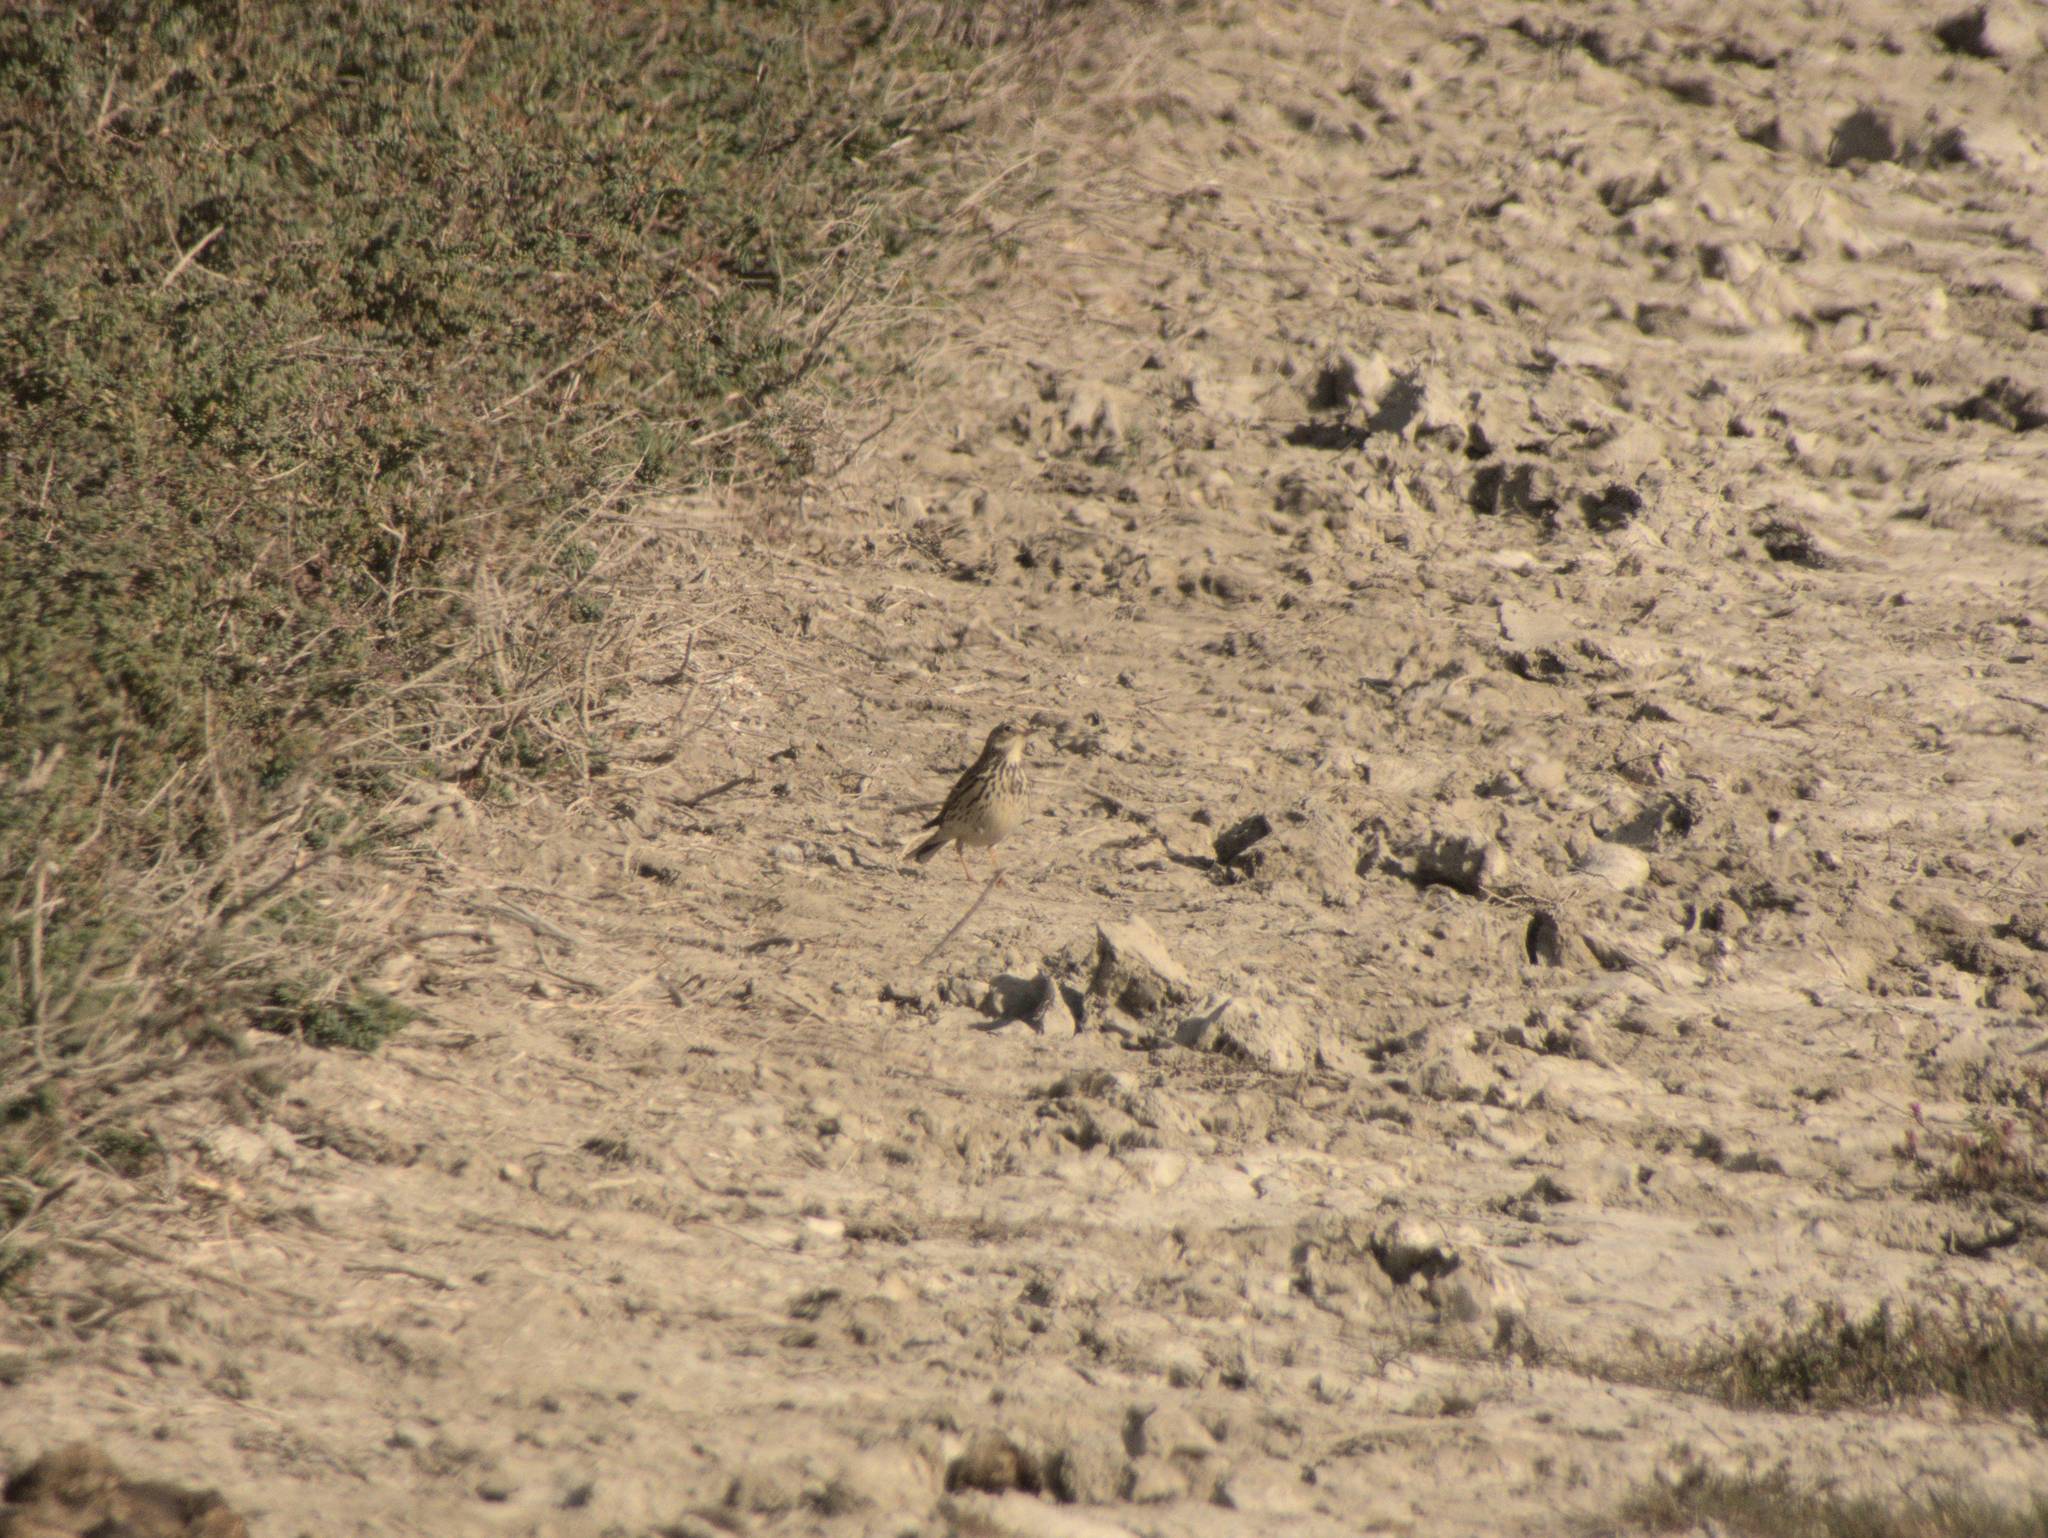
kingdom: Animalia
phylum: Chordata
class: Aves
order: Passeriformes
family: Motacillidae
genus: Anthus
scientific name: Anthus pratensis
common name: Meadow pipit
